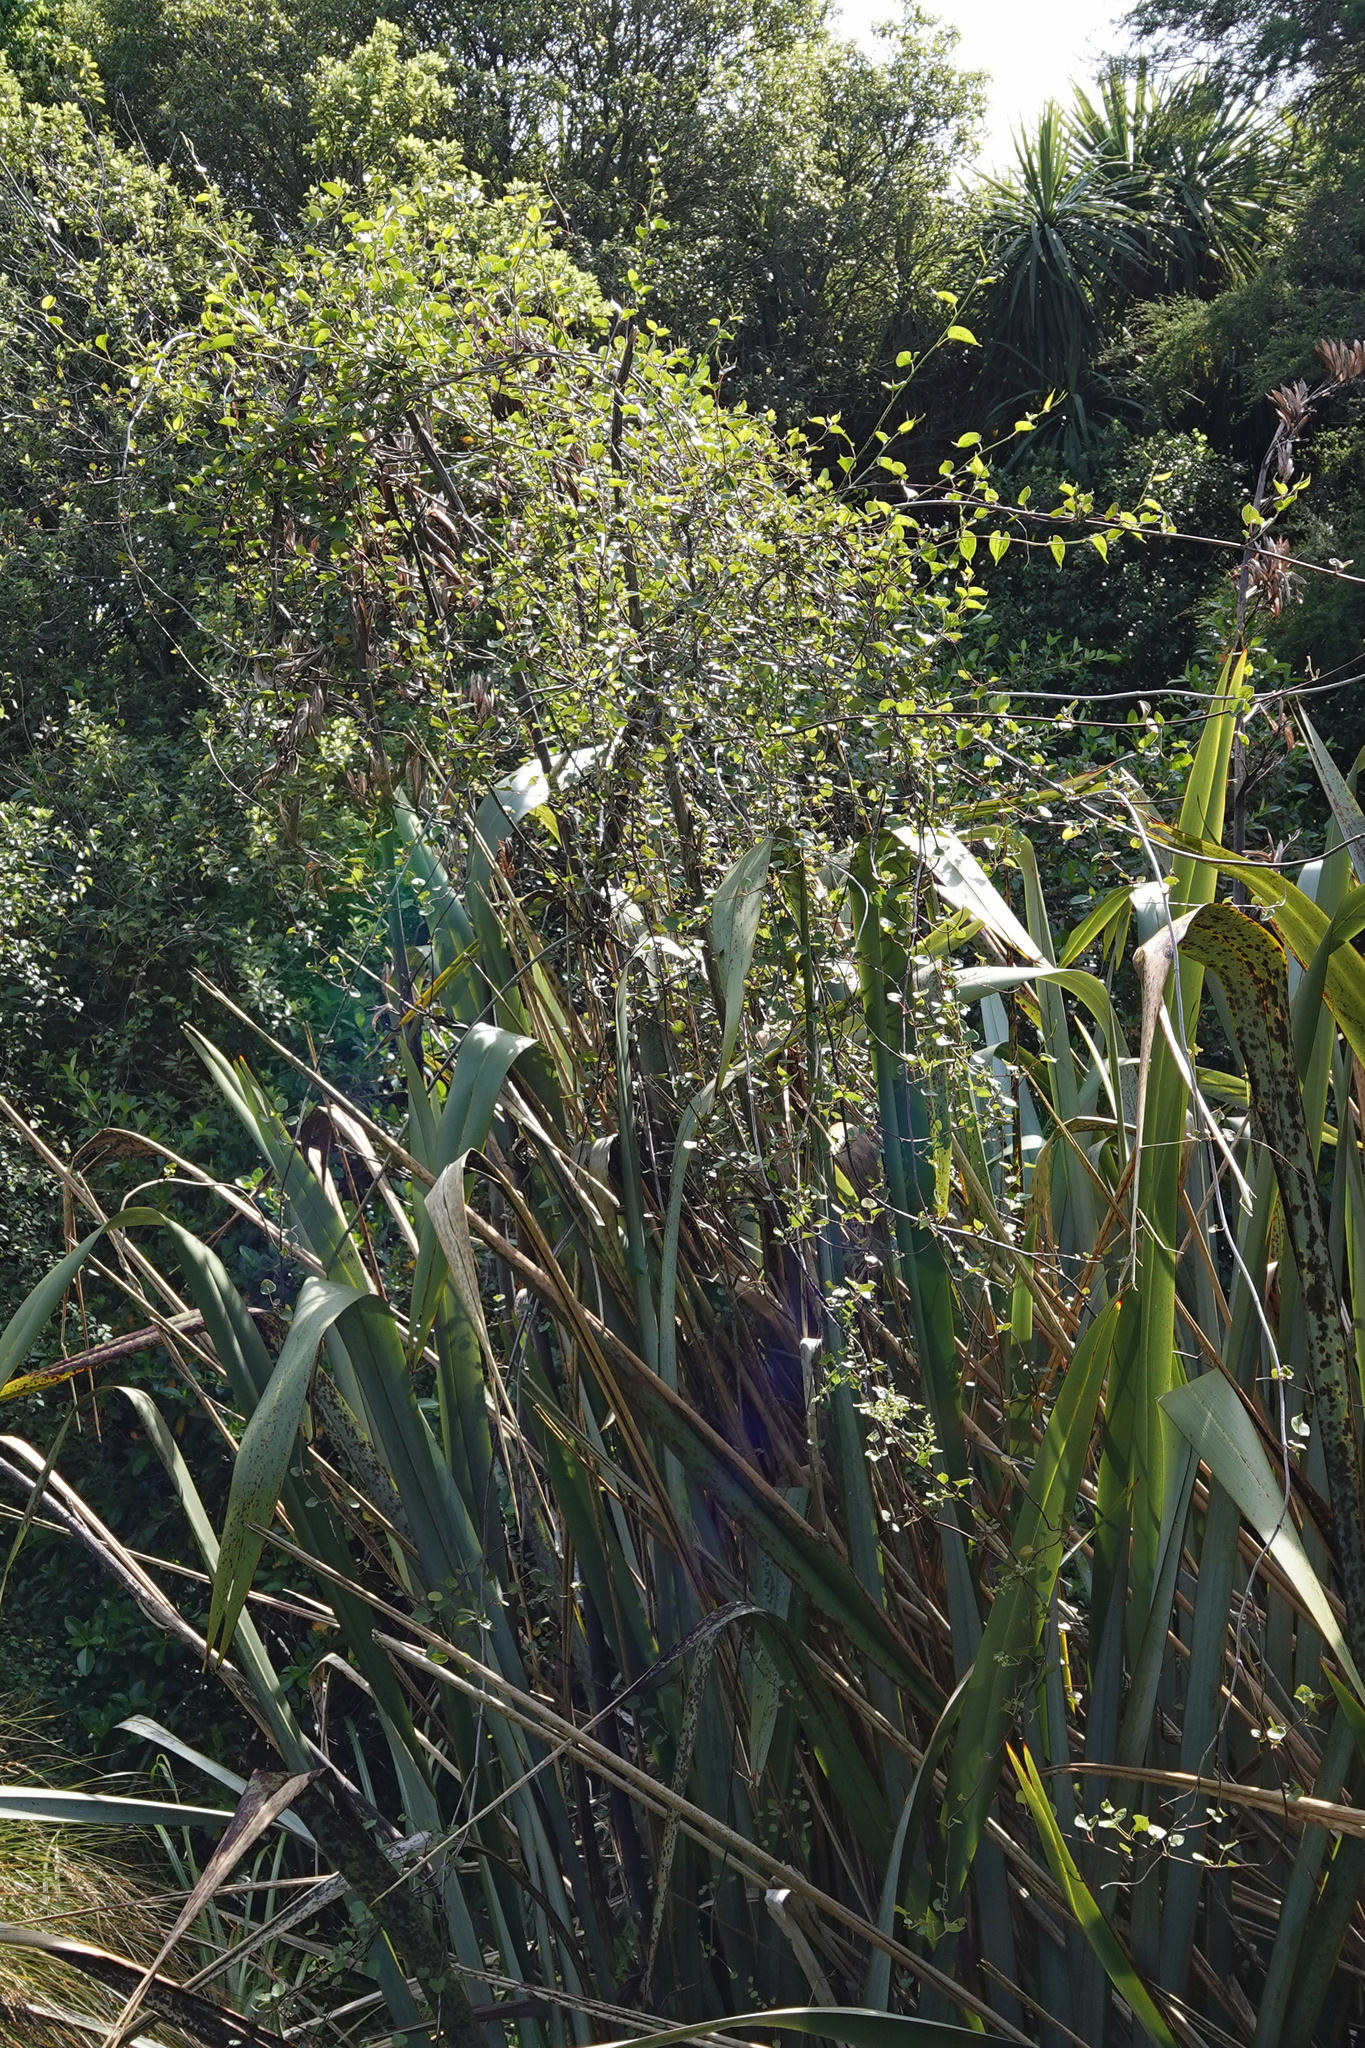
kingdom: Plantae
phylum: Tracheophyta
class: Magnoliopsida
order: Caryophyllales
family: Polygonaceae
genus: Muehlenbeckia
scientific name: Muehlenbeckia australis
